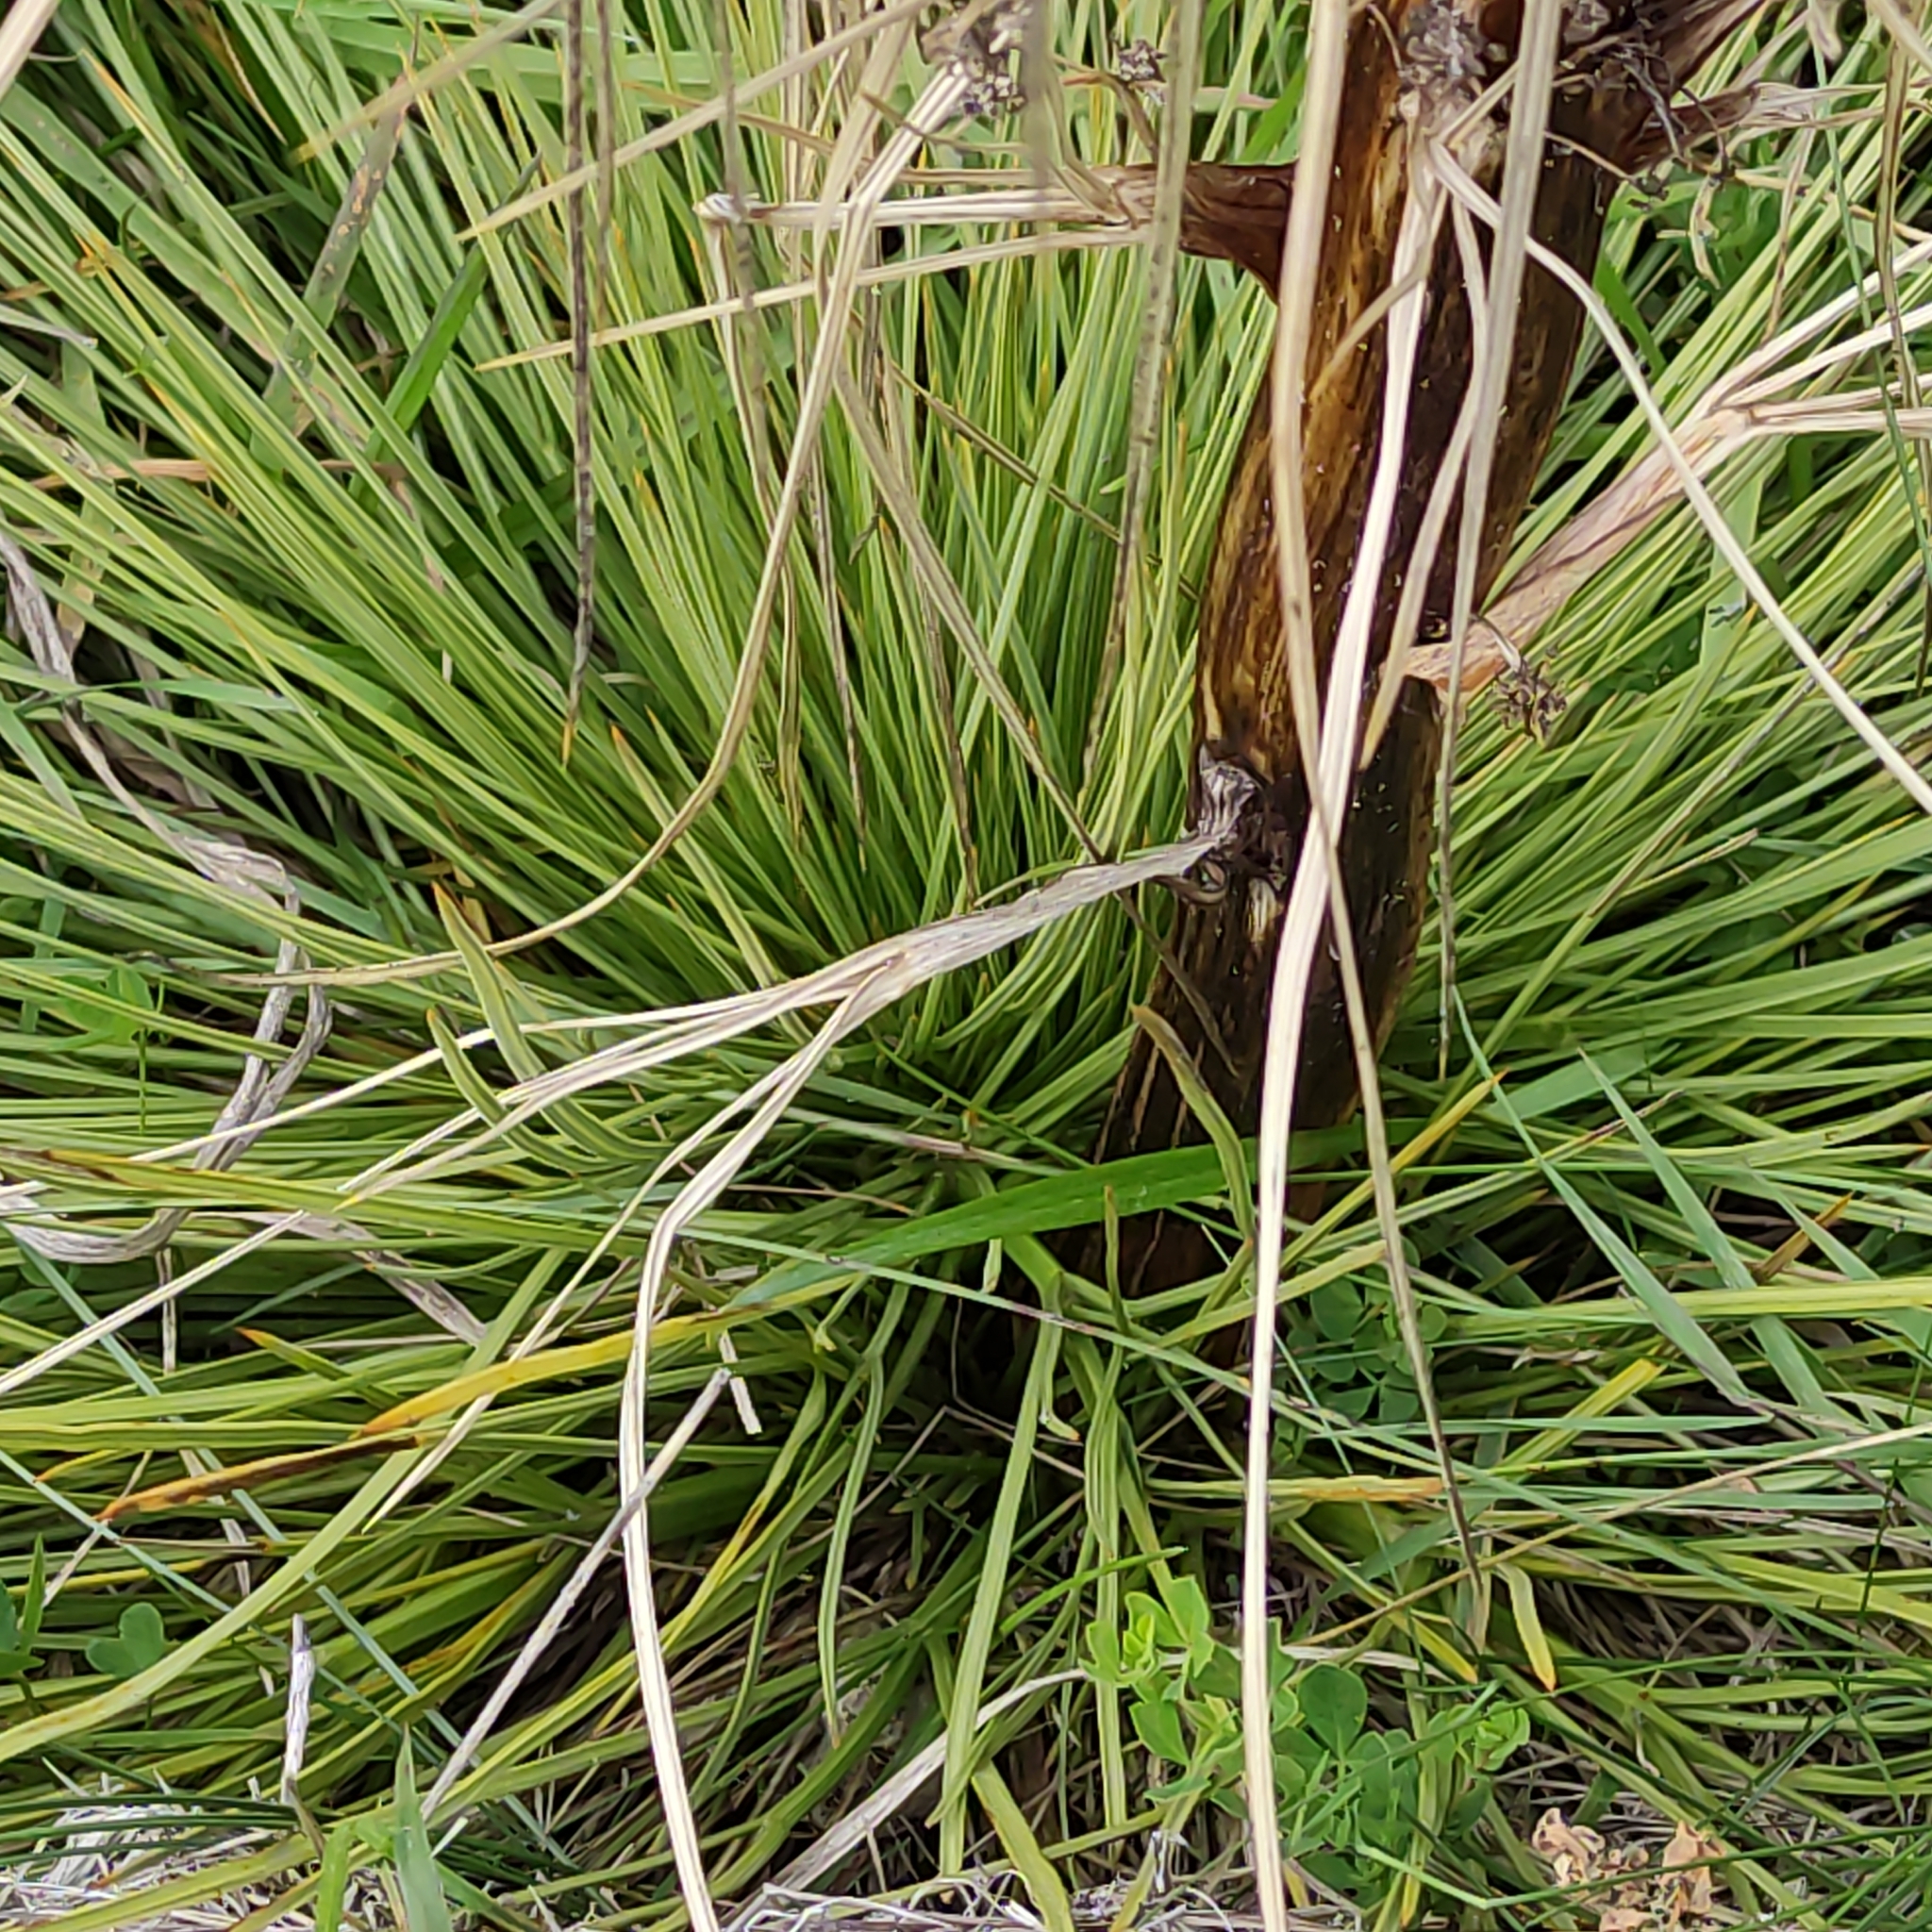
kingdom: Plantae
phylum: Tracheophyta
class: Magnoliopsida
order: Apiales
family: Apiaceae
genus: Aciphylla
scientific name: Aciphylla subflabellata
